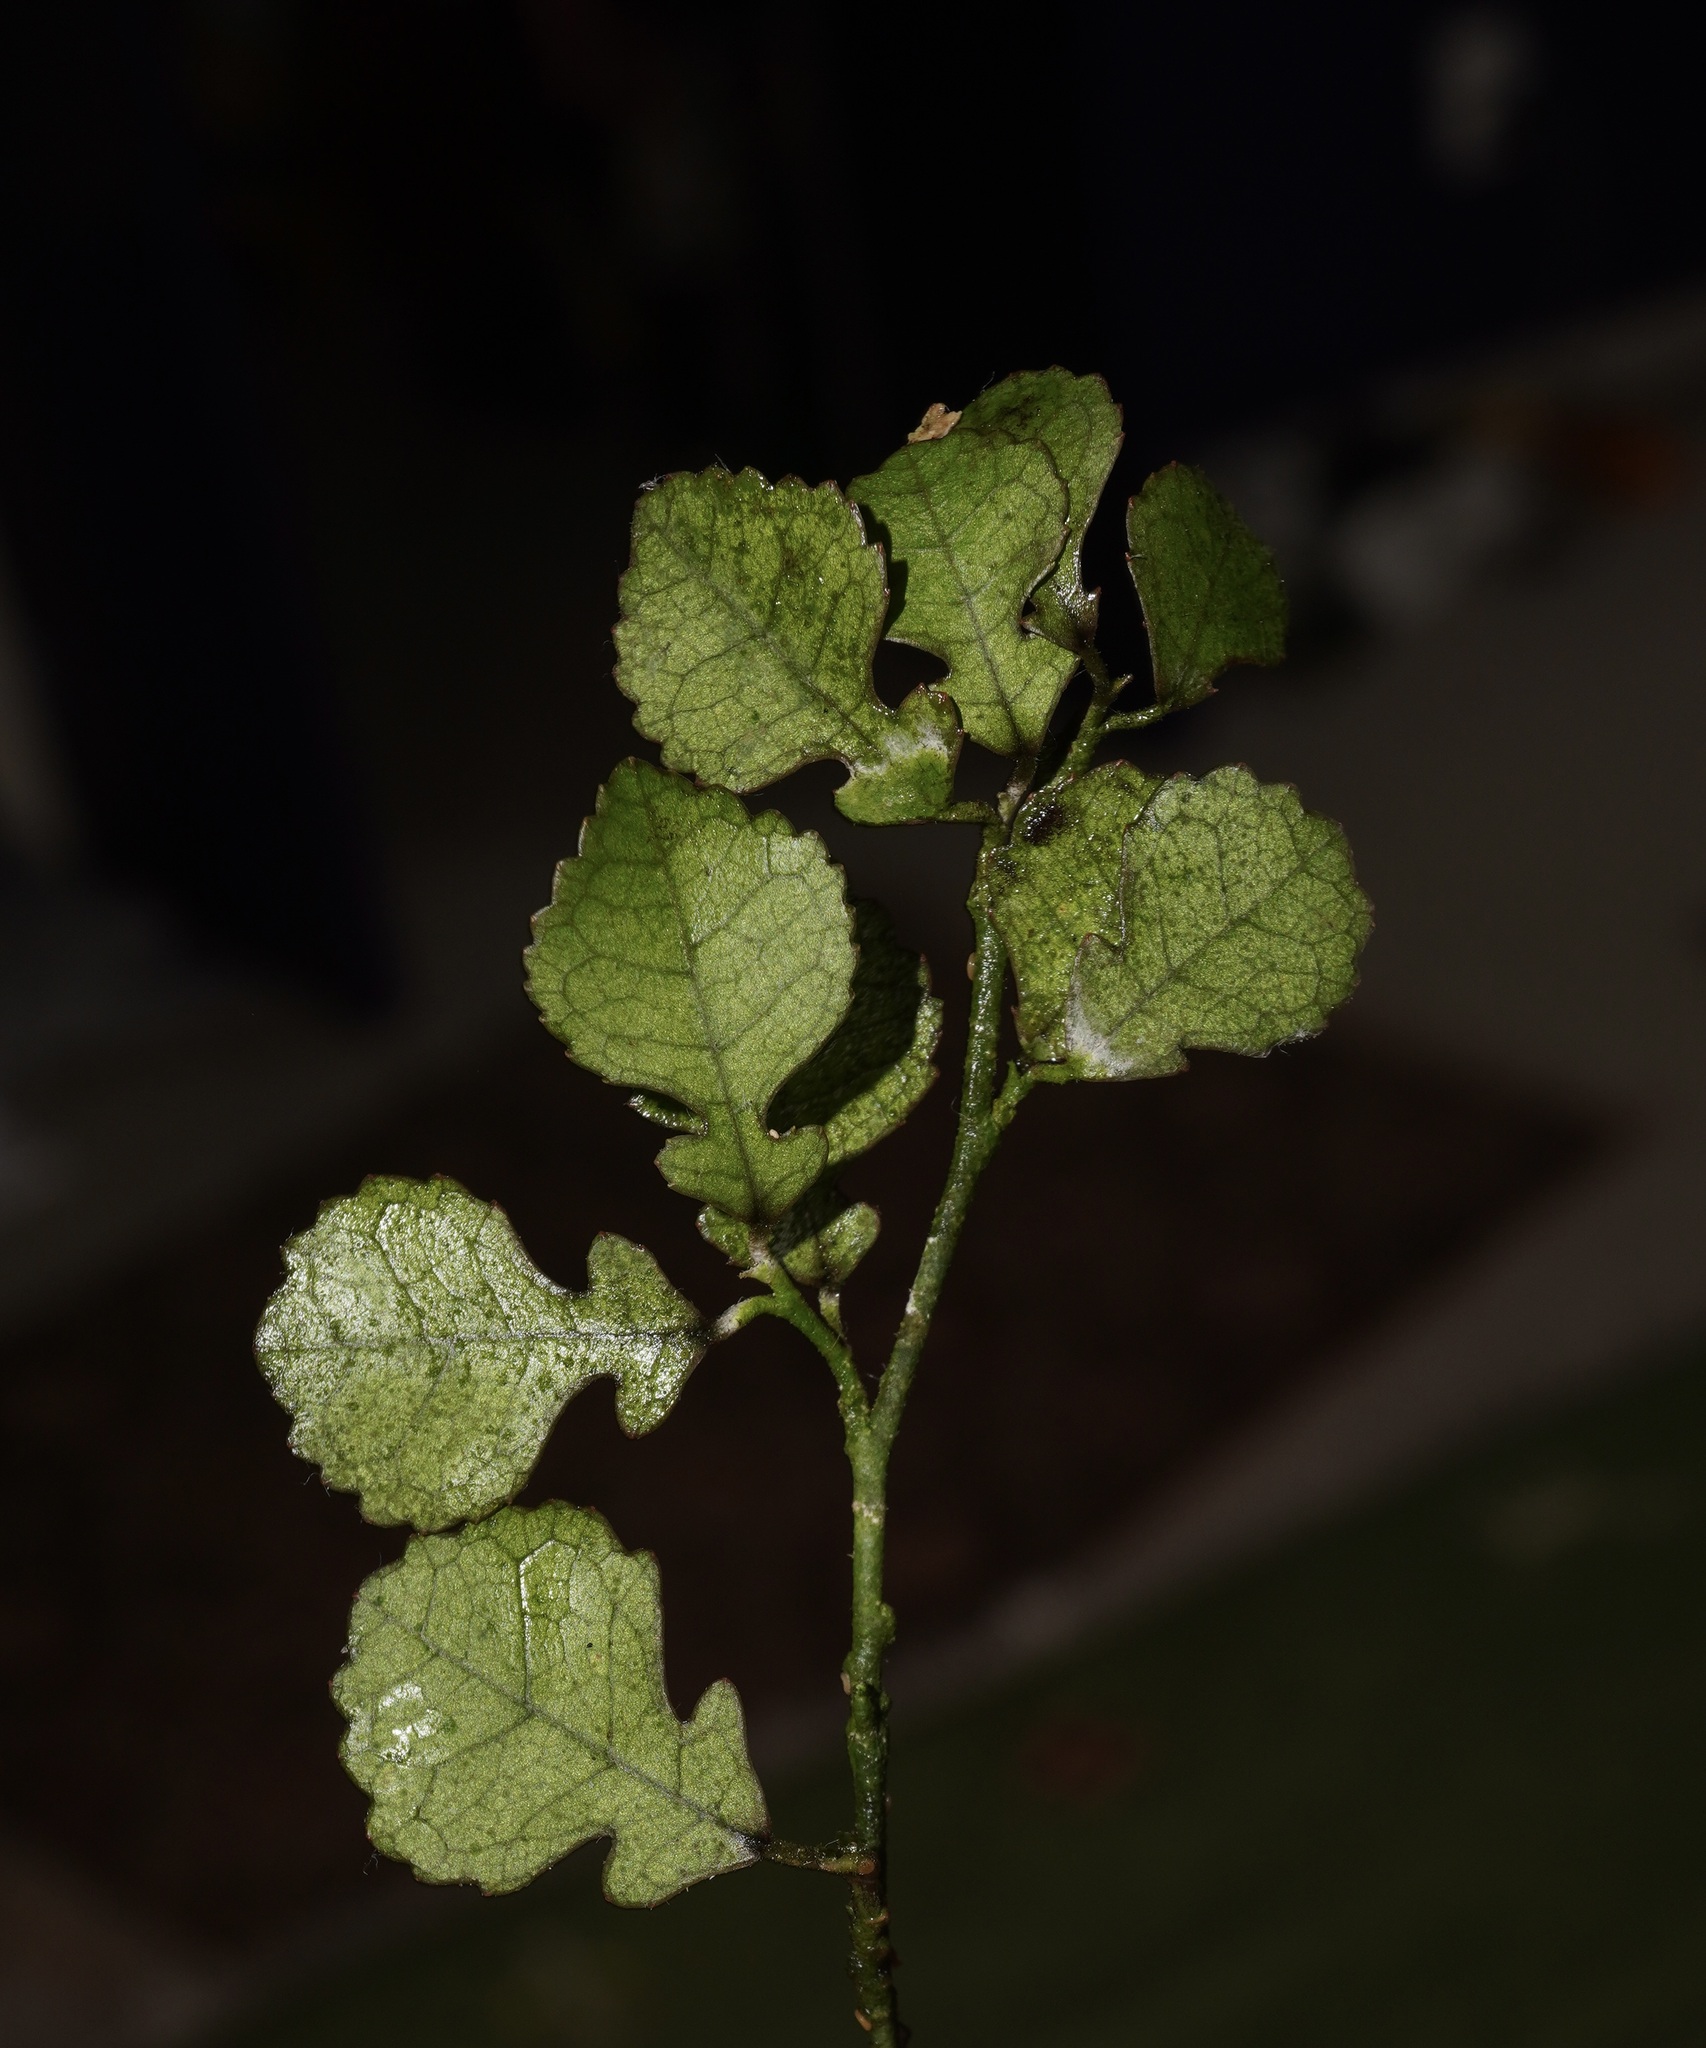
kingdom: Plantae
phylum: Tracheophyta
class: Magnoliopsida
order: Rosales
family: Moraceae
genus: Paratrophis
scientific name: Paratrophis microphylla
